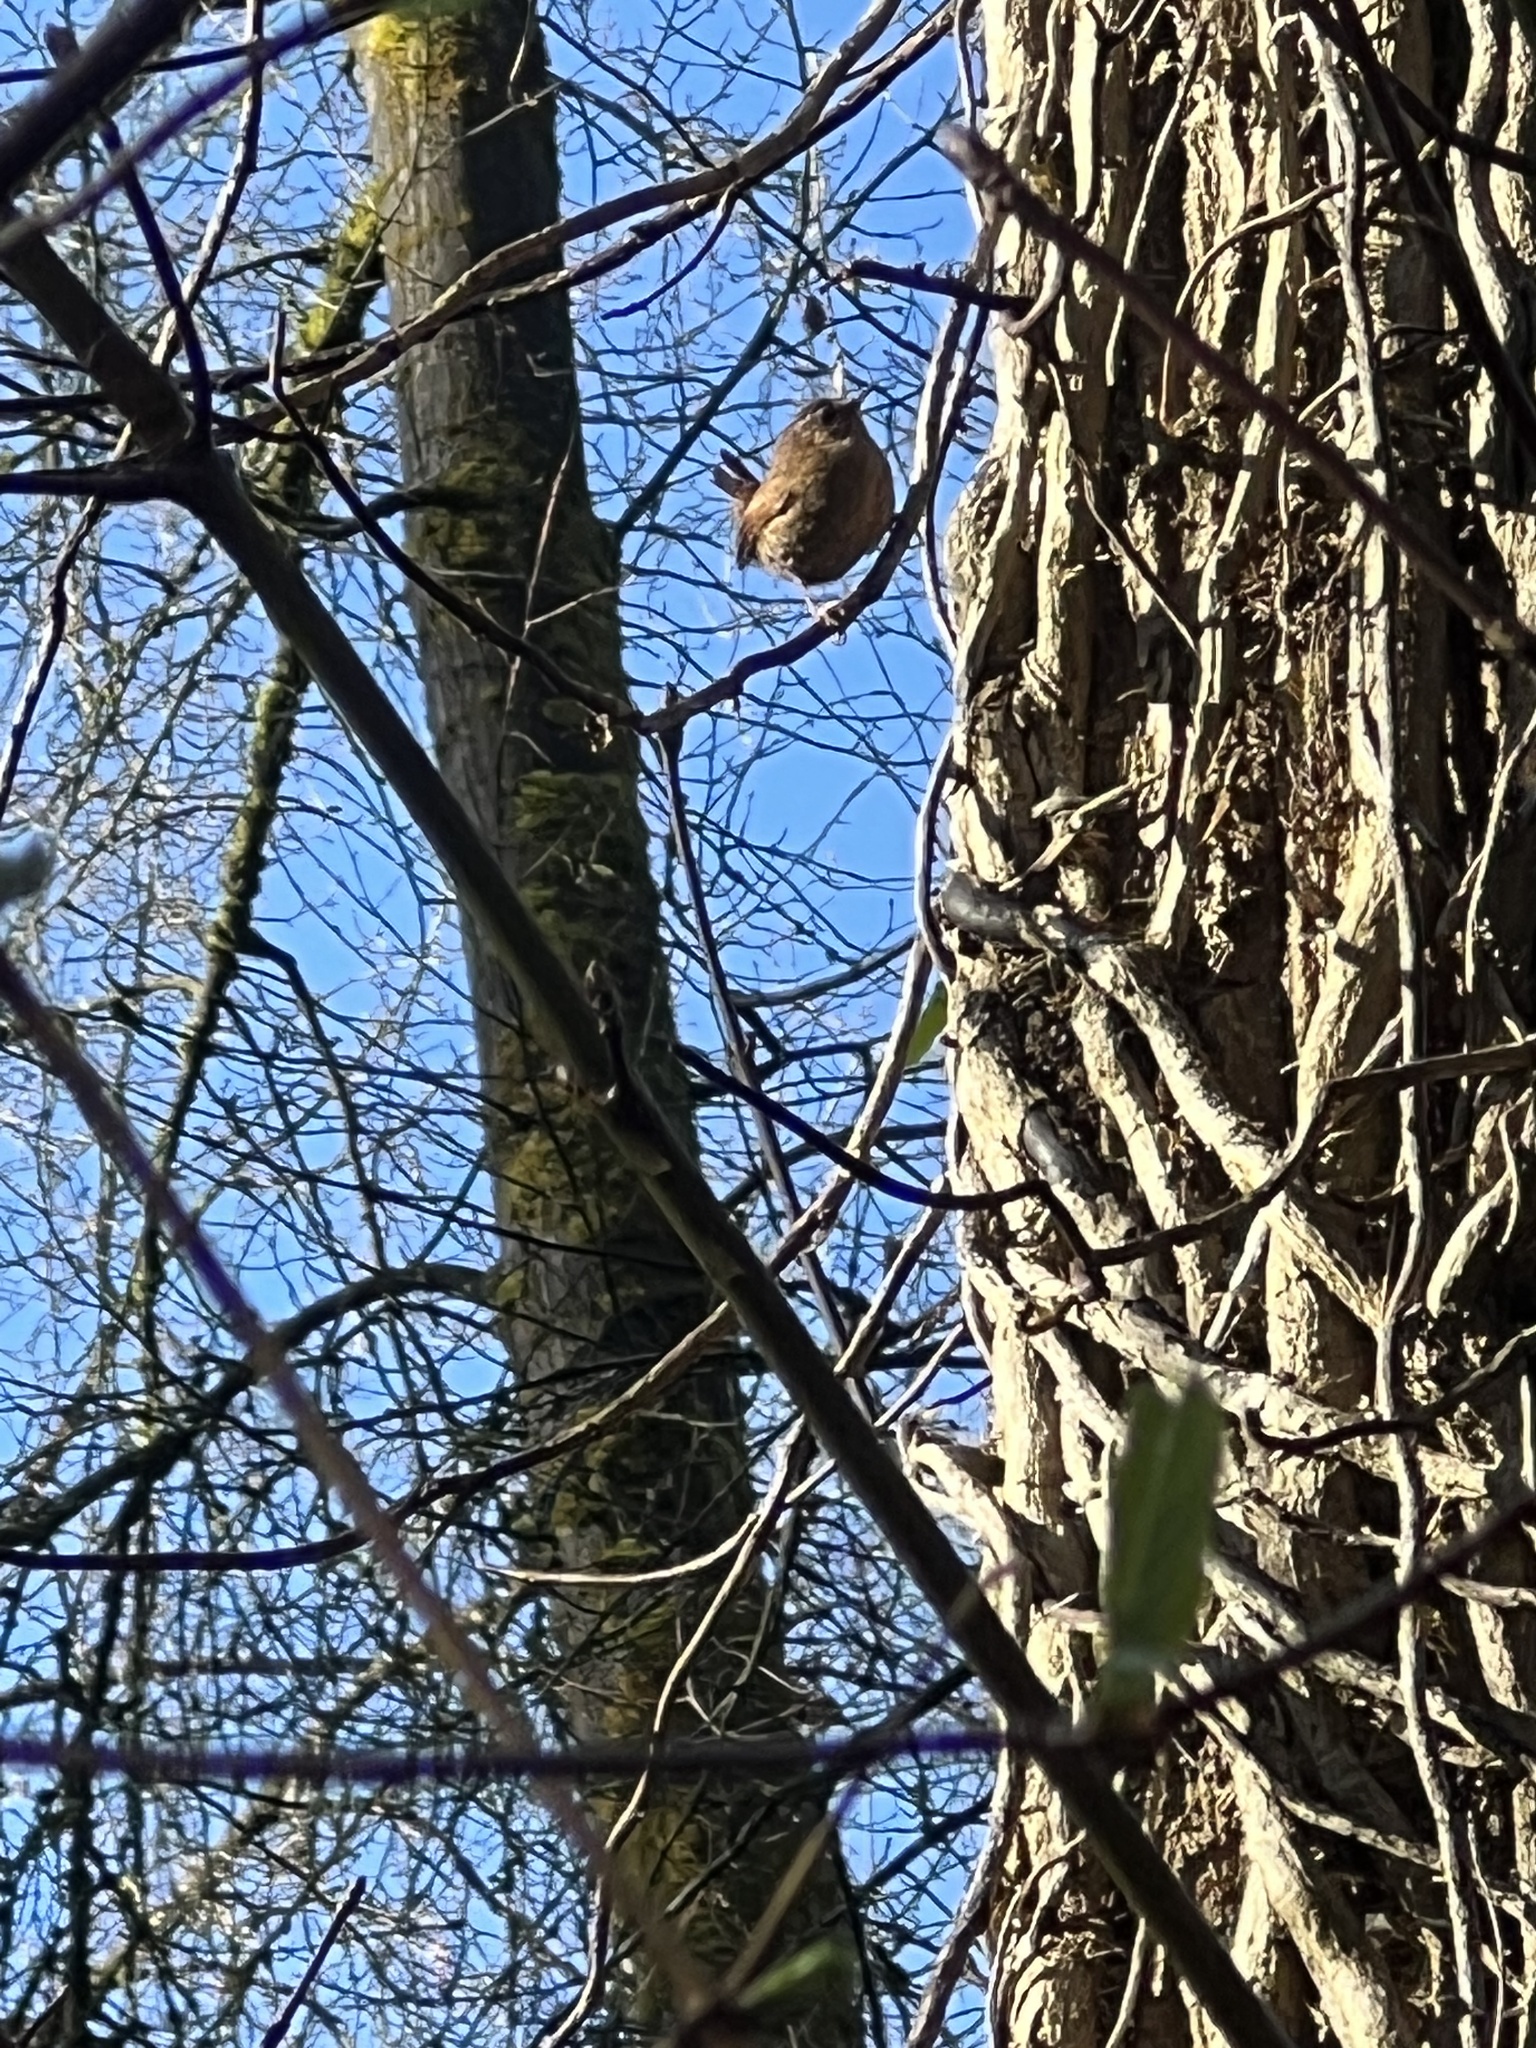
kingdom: Animalia
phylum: Chordata
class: Aves
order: Passeriformes
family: Troglodytidae
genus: Troglodytes
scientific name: Troglodytes pacificus
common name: Pacific wren
